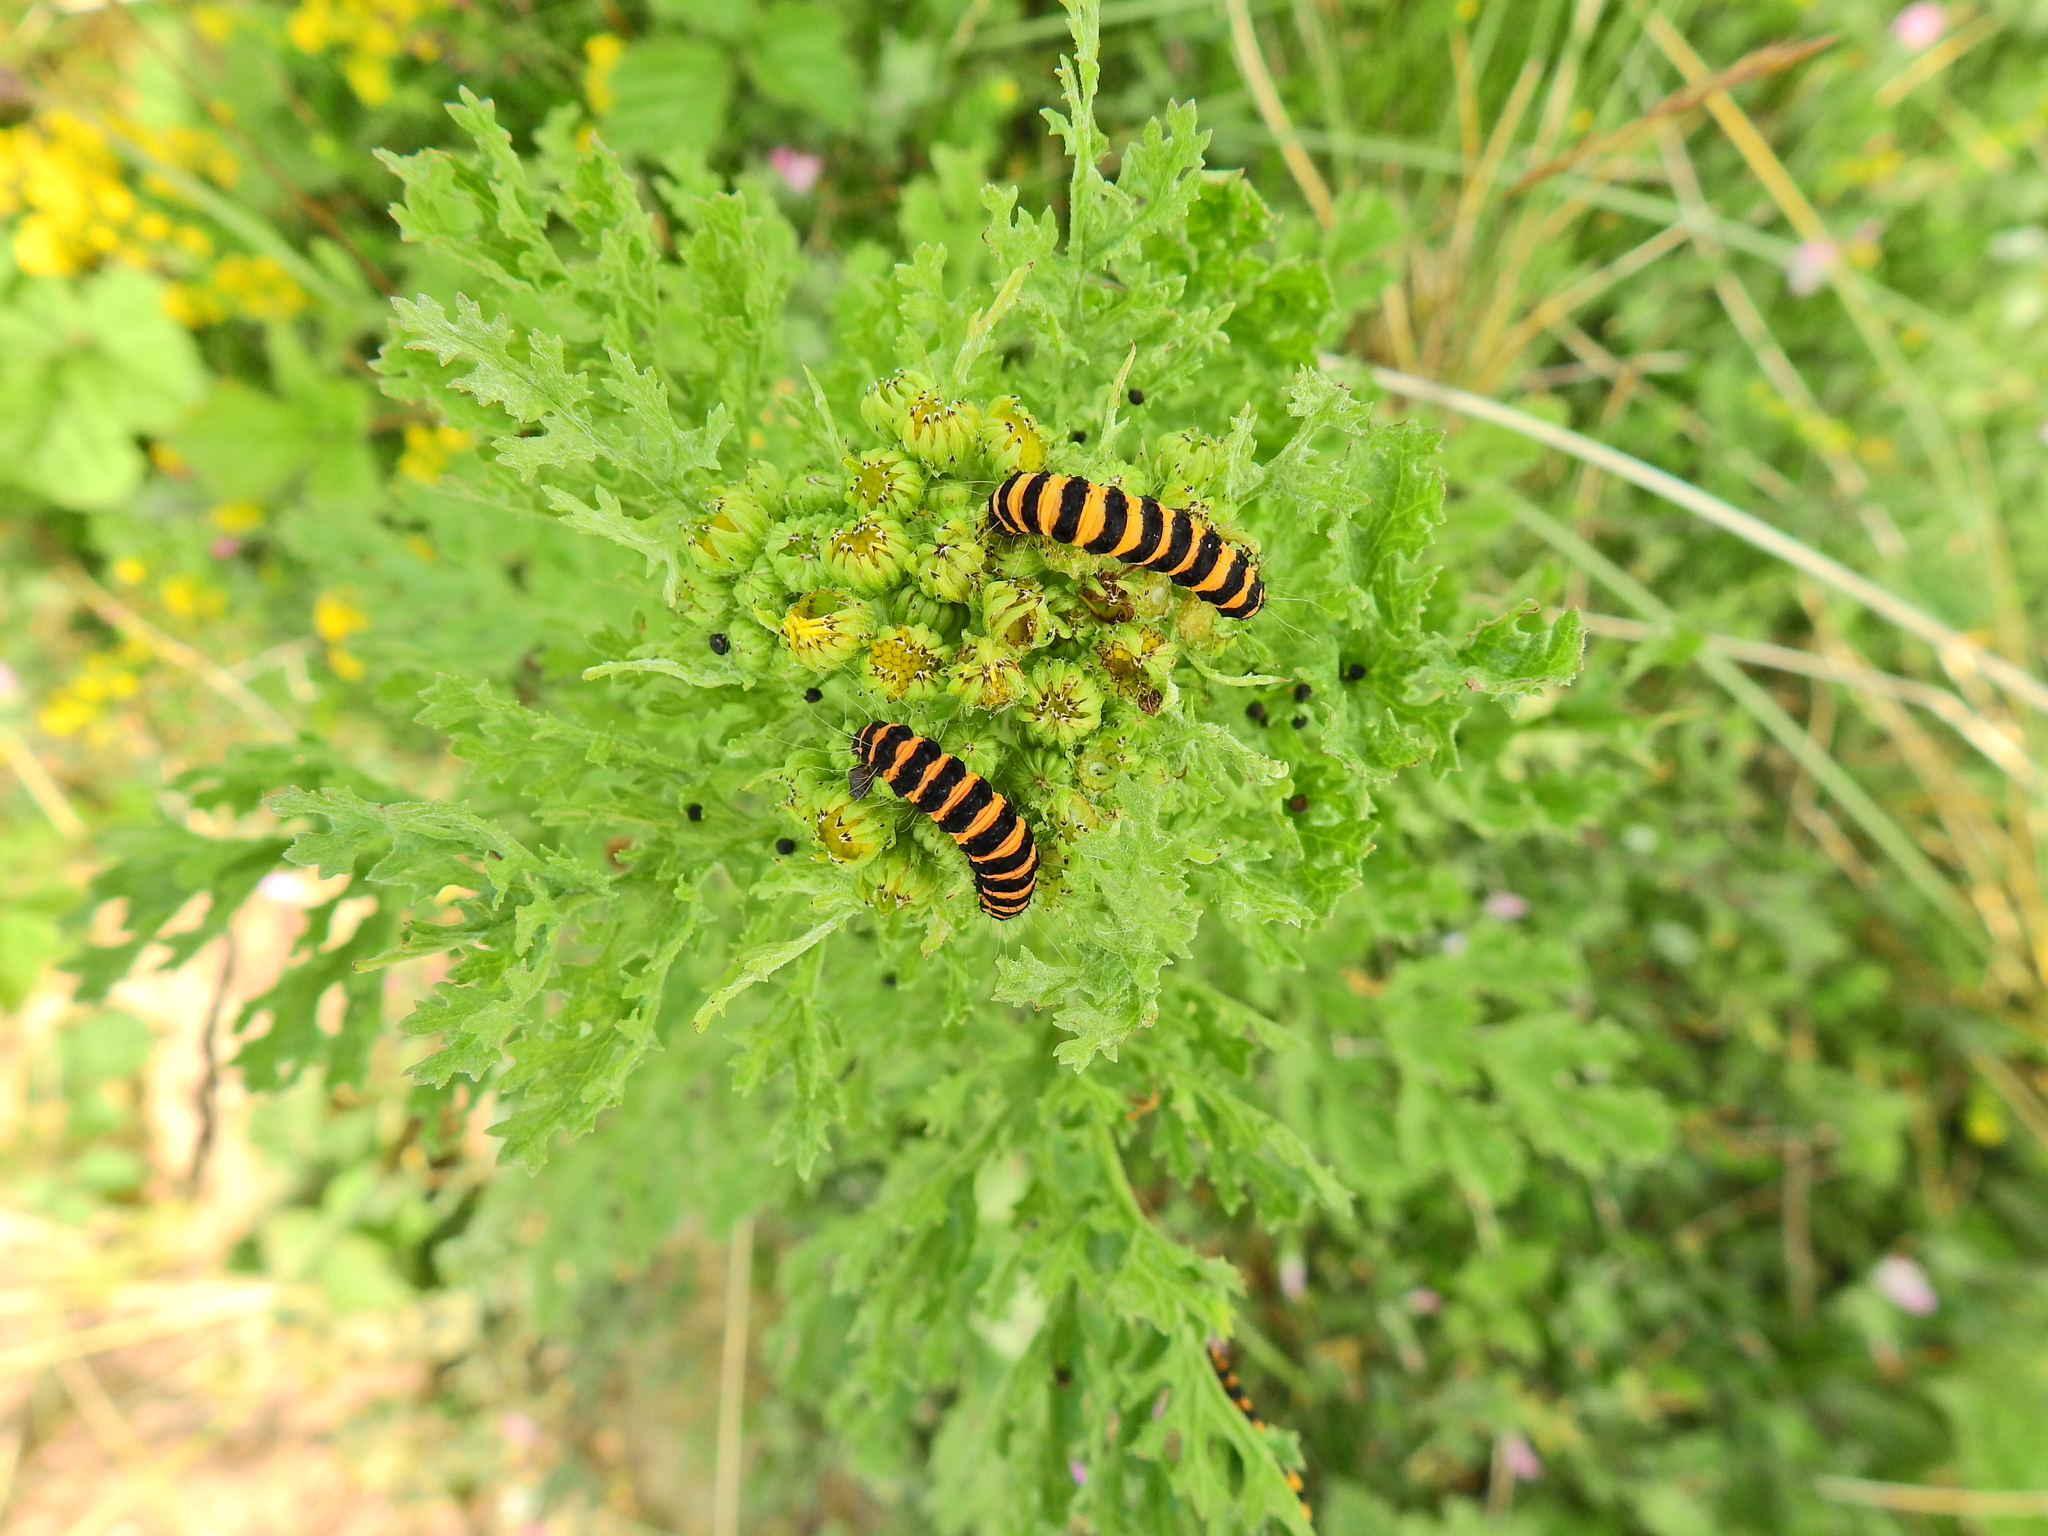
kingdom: Animalia
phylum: Arthropoda
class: Insecta
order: Lepidoptera
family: Erebidae
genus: Tyria
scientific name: Tyria jacobaeae
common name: Cinnabar
